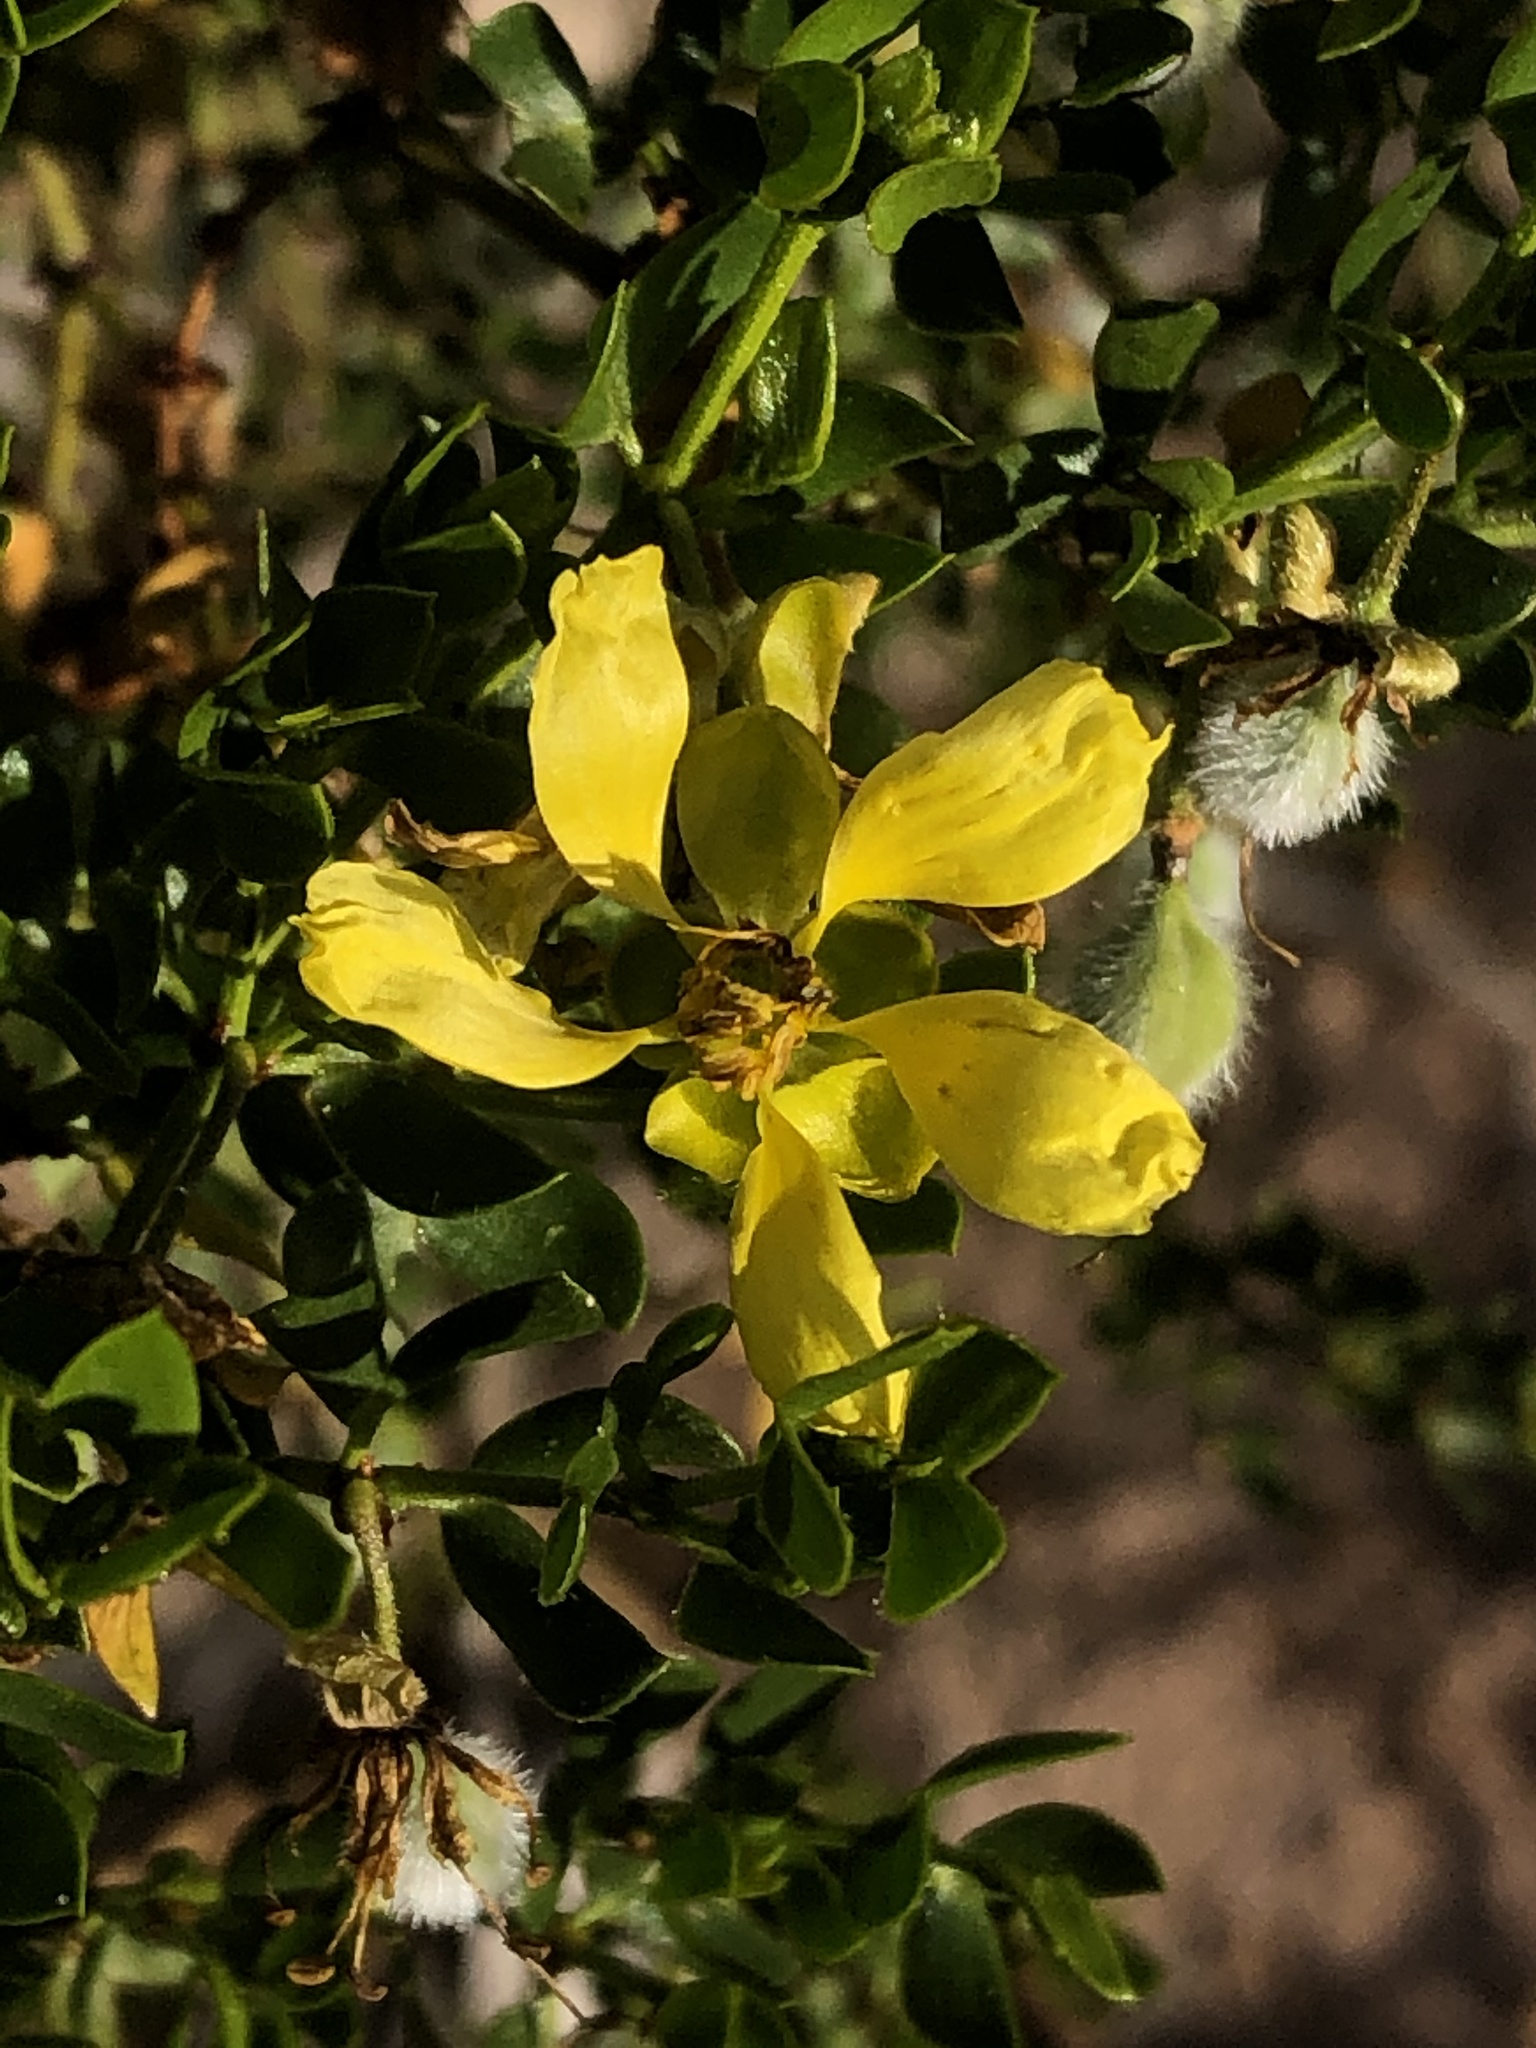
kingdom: Plantae
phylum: Tracheophyta
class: Magnoliopsida
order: Zygophyllales
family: Zygophyllaceae
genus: Larrea
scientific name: Larrea tridentata
